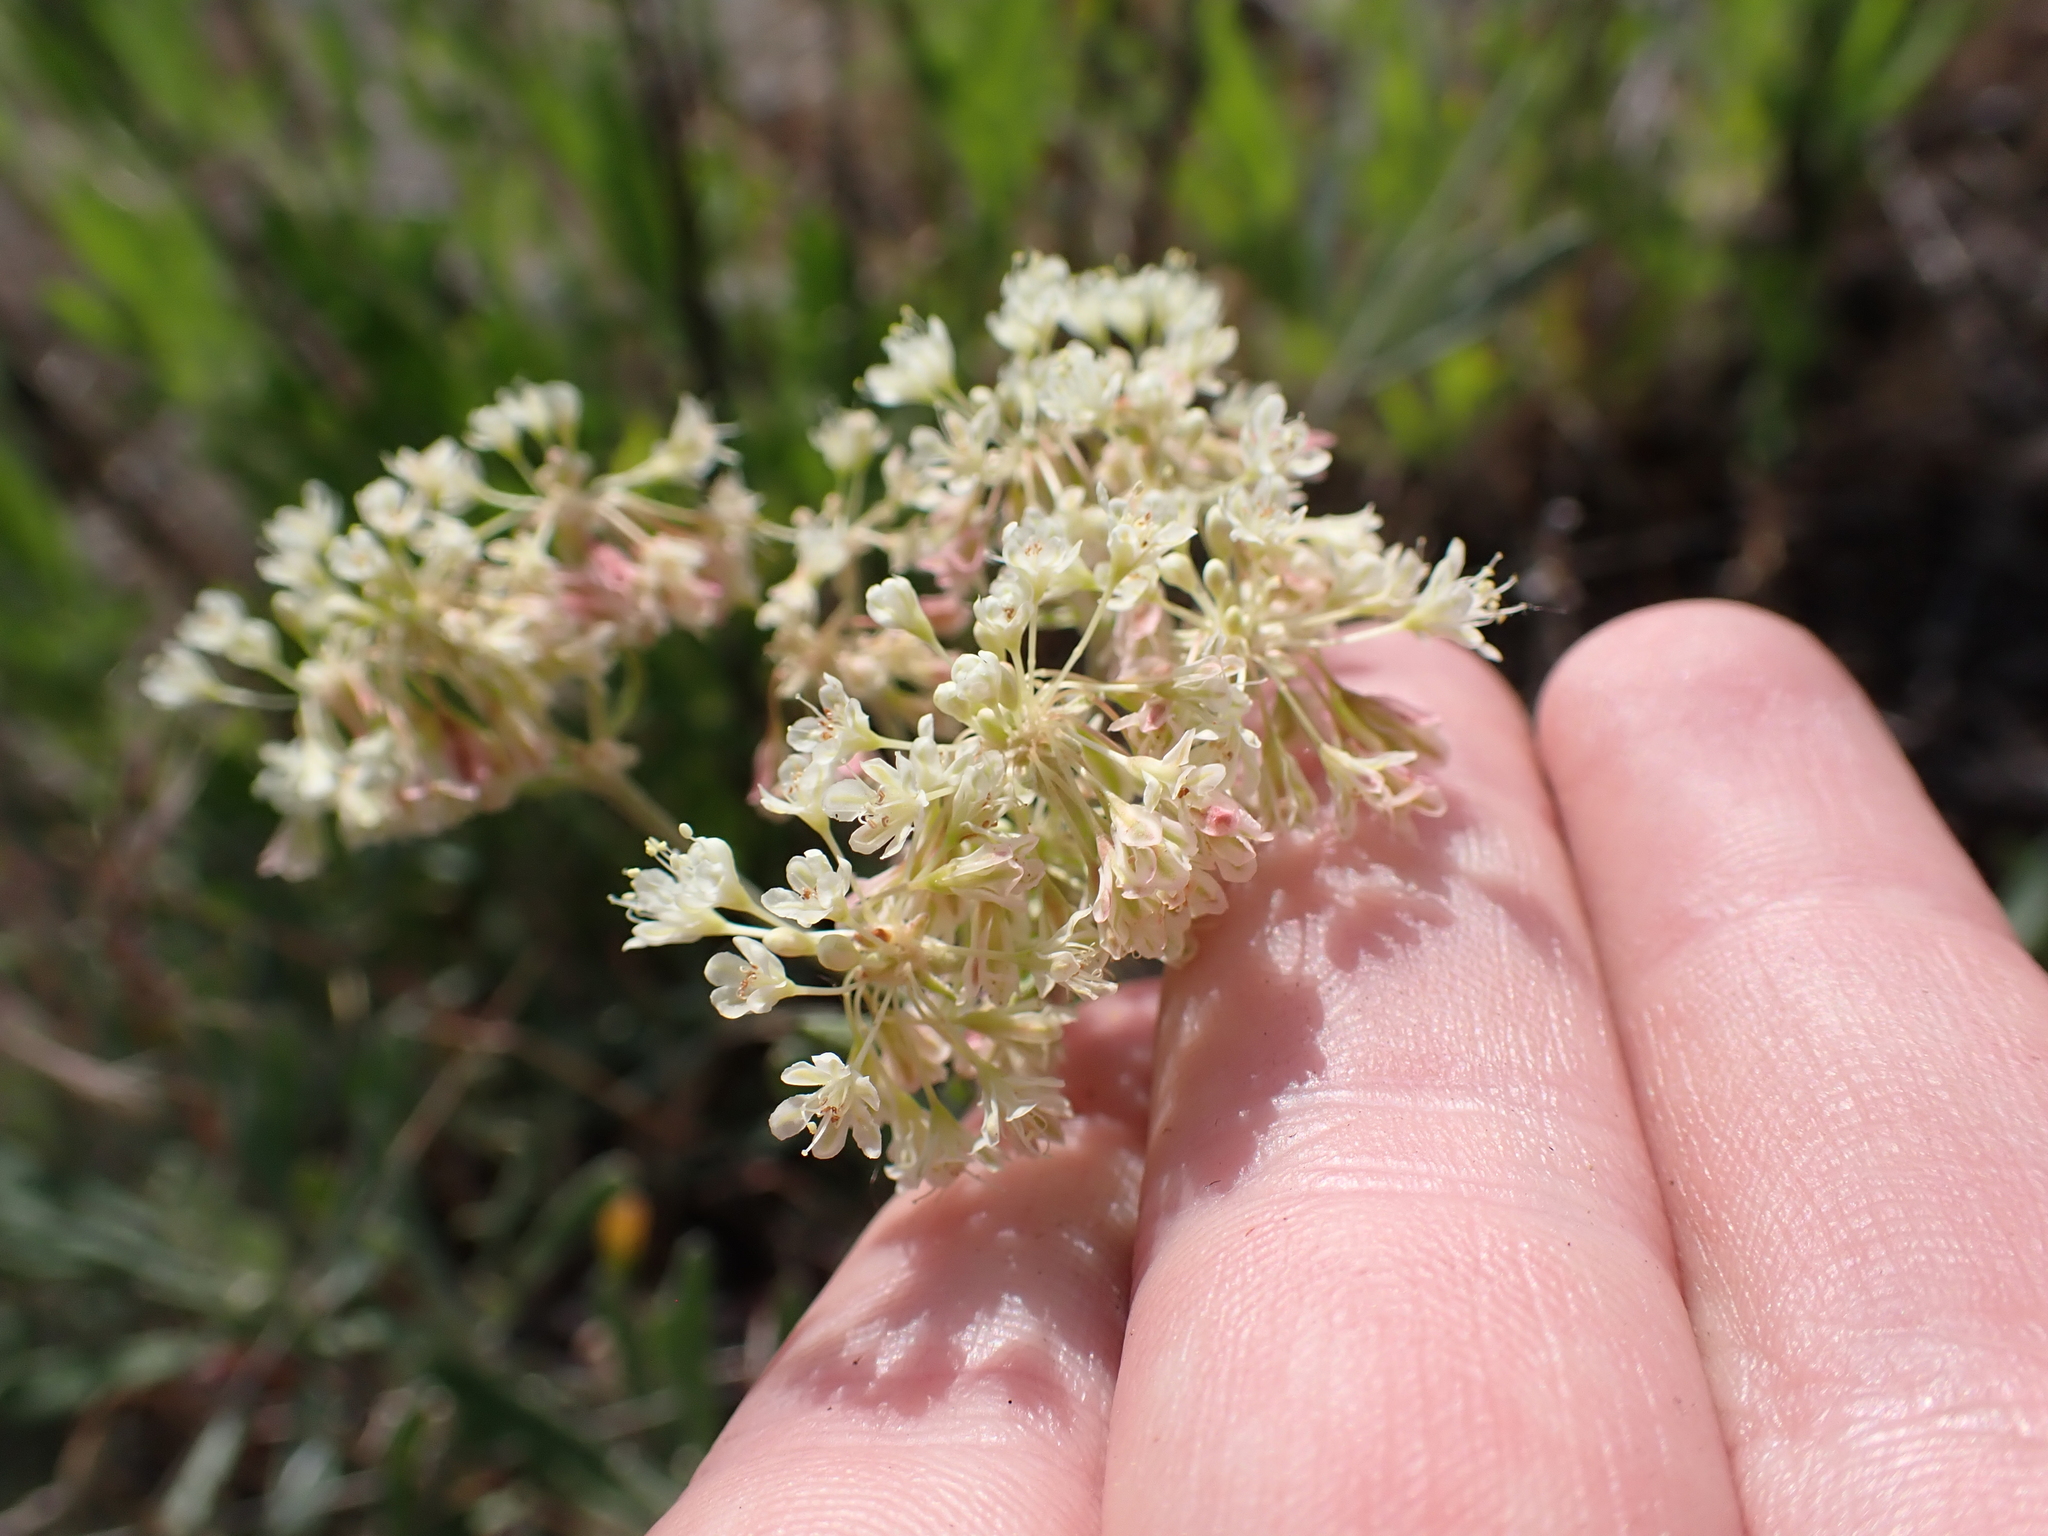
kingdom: Plantae
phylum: Tracheophyta
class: Magnoliopsida
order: Caryophyllales
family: Polygonaceae
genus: Eriogonum
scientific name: Eriogonum heracleoides
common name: Wyeth's buckwheat
